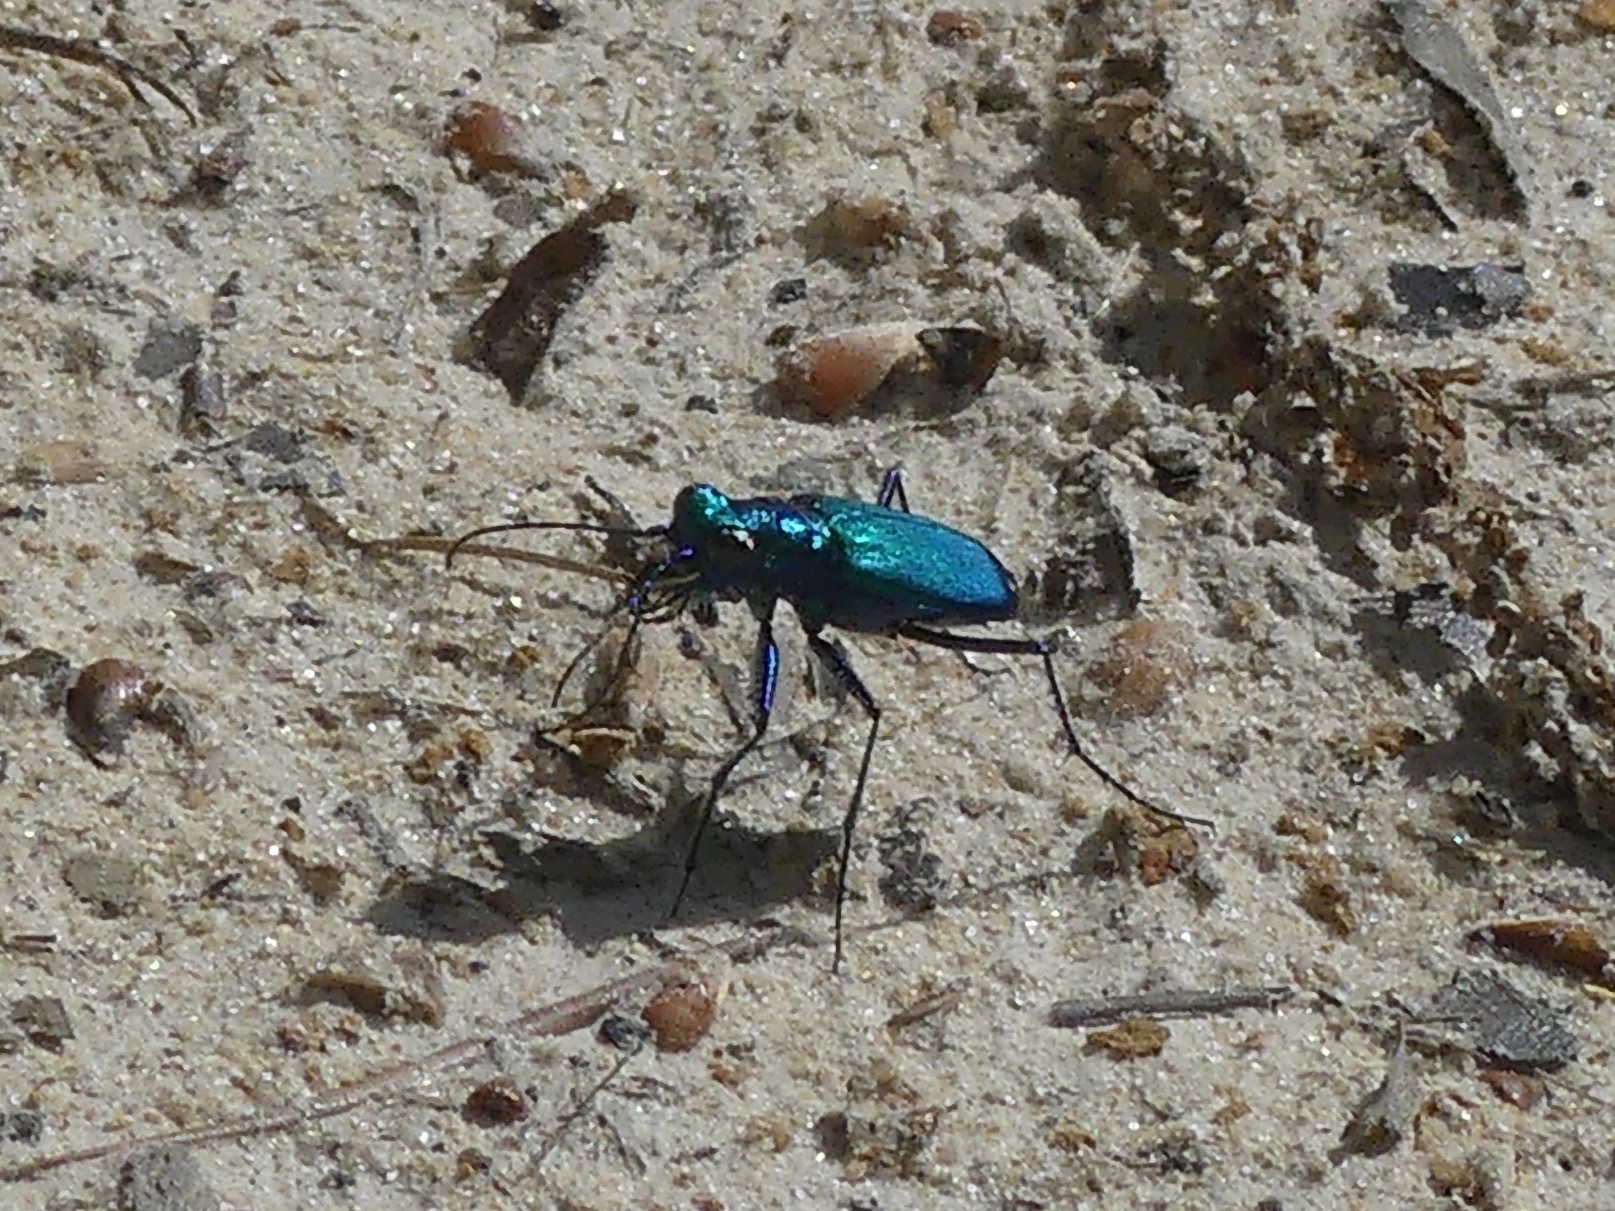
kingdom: Animalia
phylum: Arthropoda
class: Insecta
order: Coleoptera
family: Carabidae
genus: Cicindela
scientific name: Cicindela sexguttata
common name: Six-spotted tiger beetle
